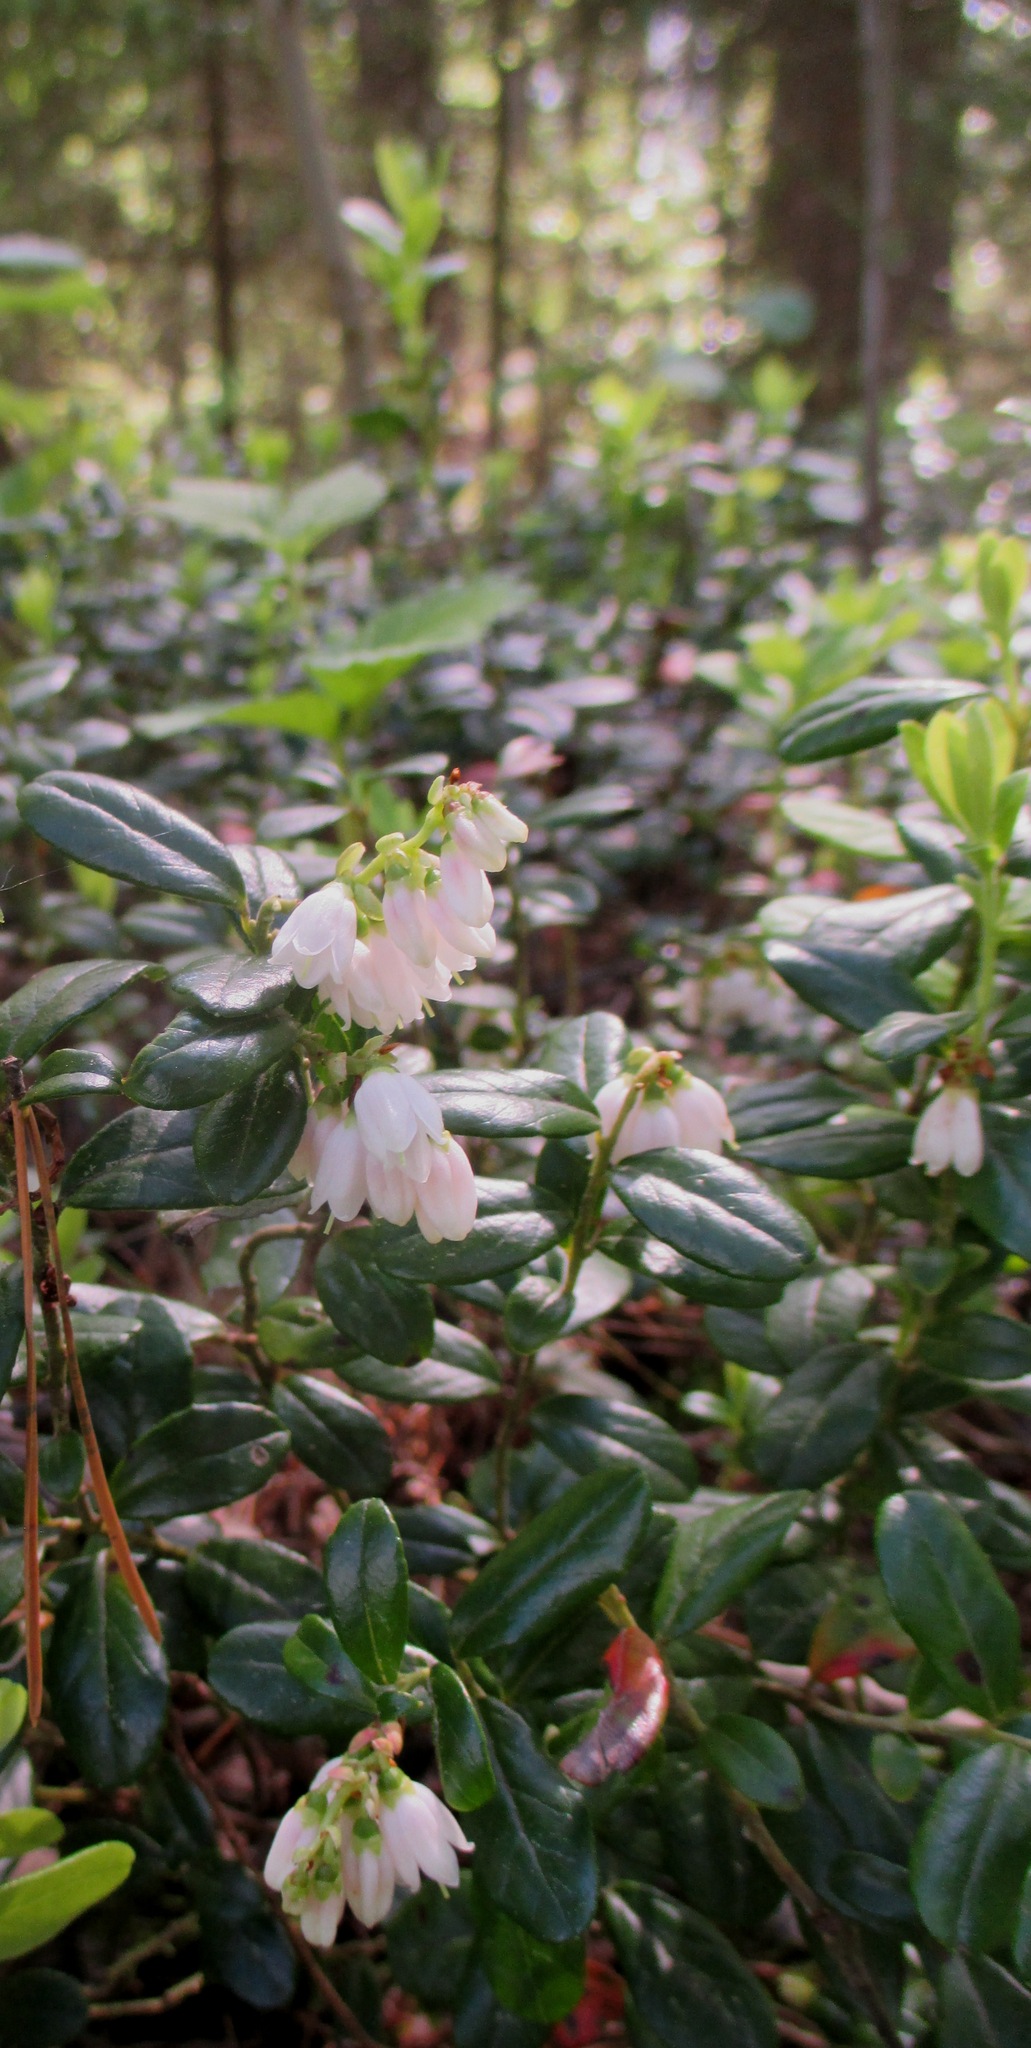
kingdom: Plantae
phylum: Tracheophyta
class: Magnoliopsida
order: Ericales
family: Ericaceae
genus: Vaccinium
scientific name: Vaccinium vitis-idaea
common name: Cowberry
